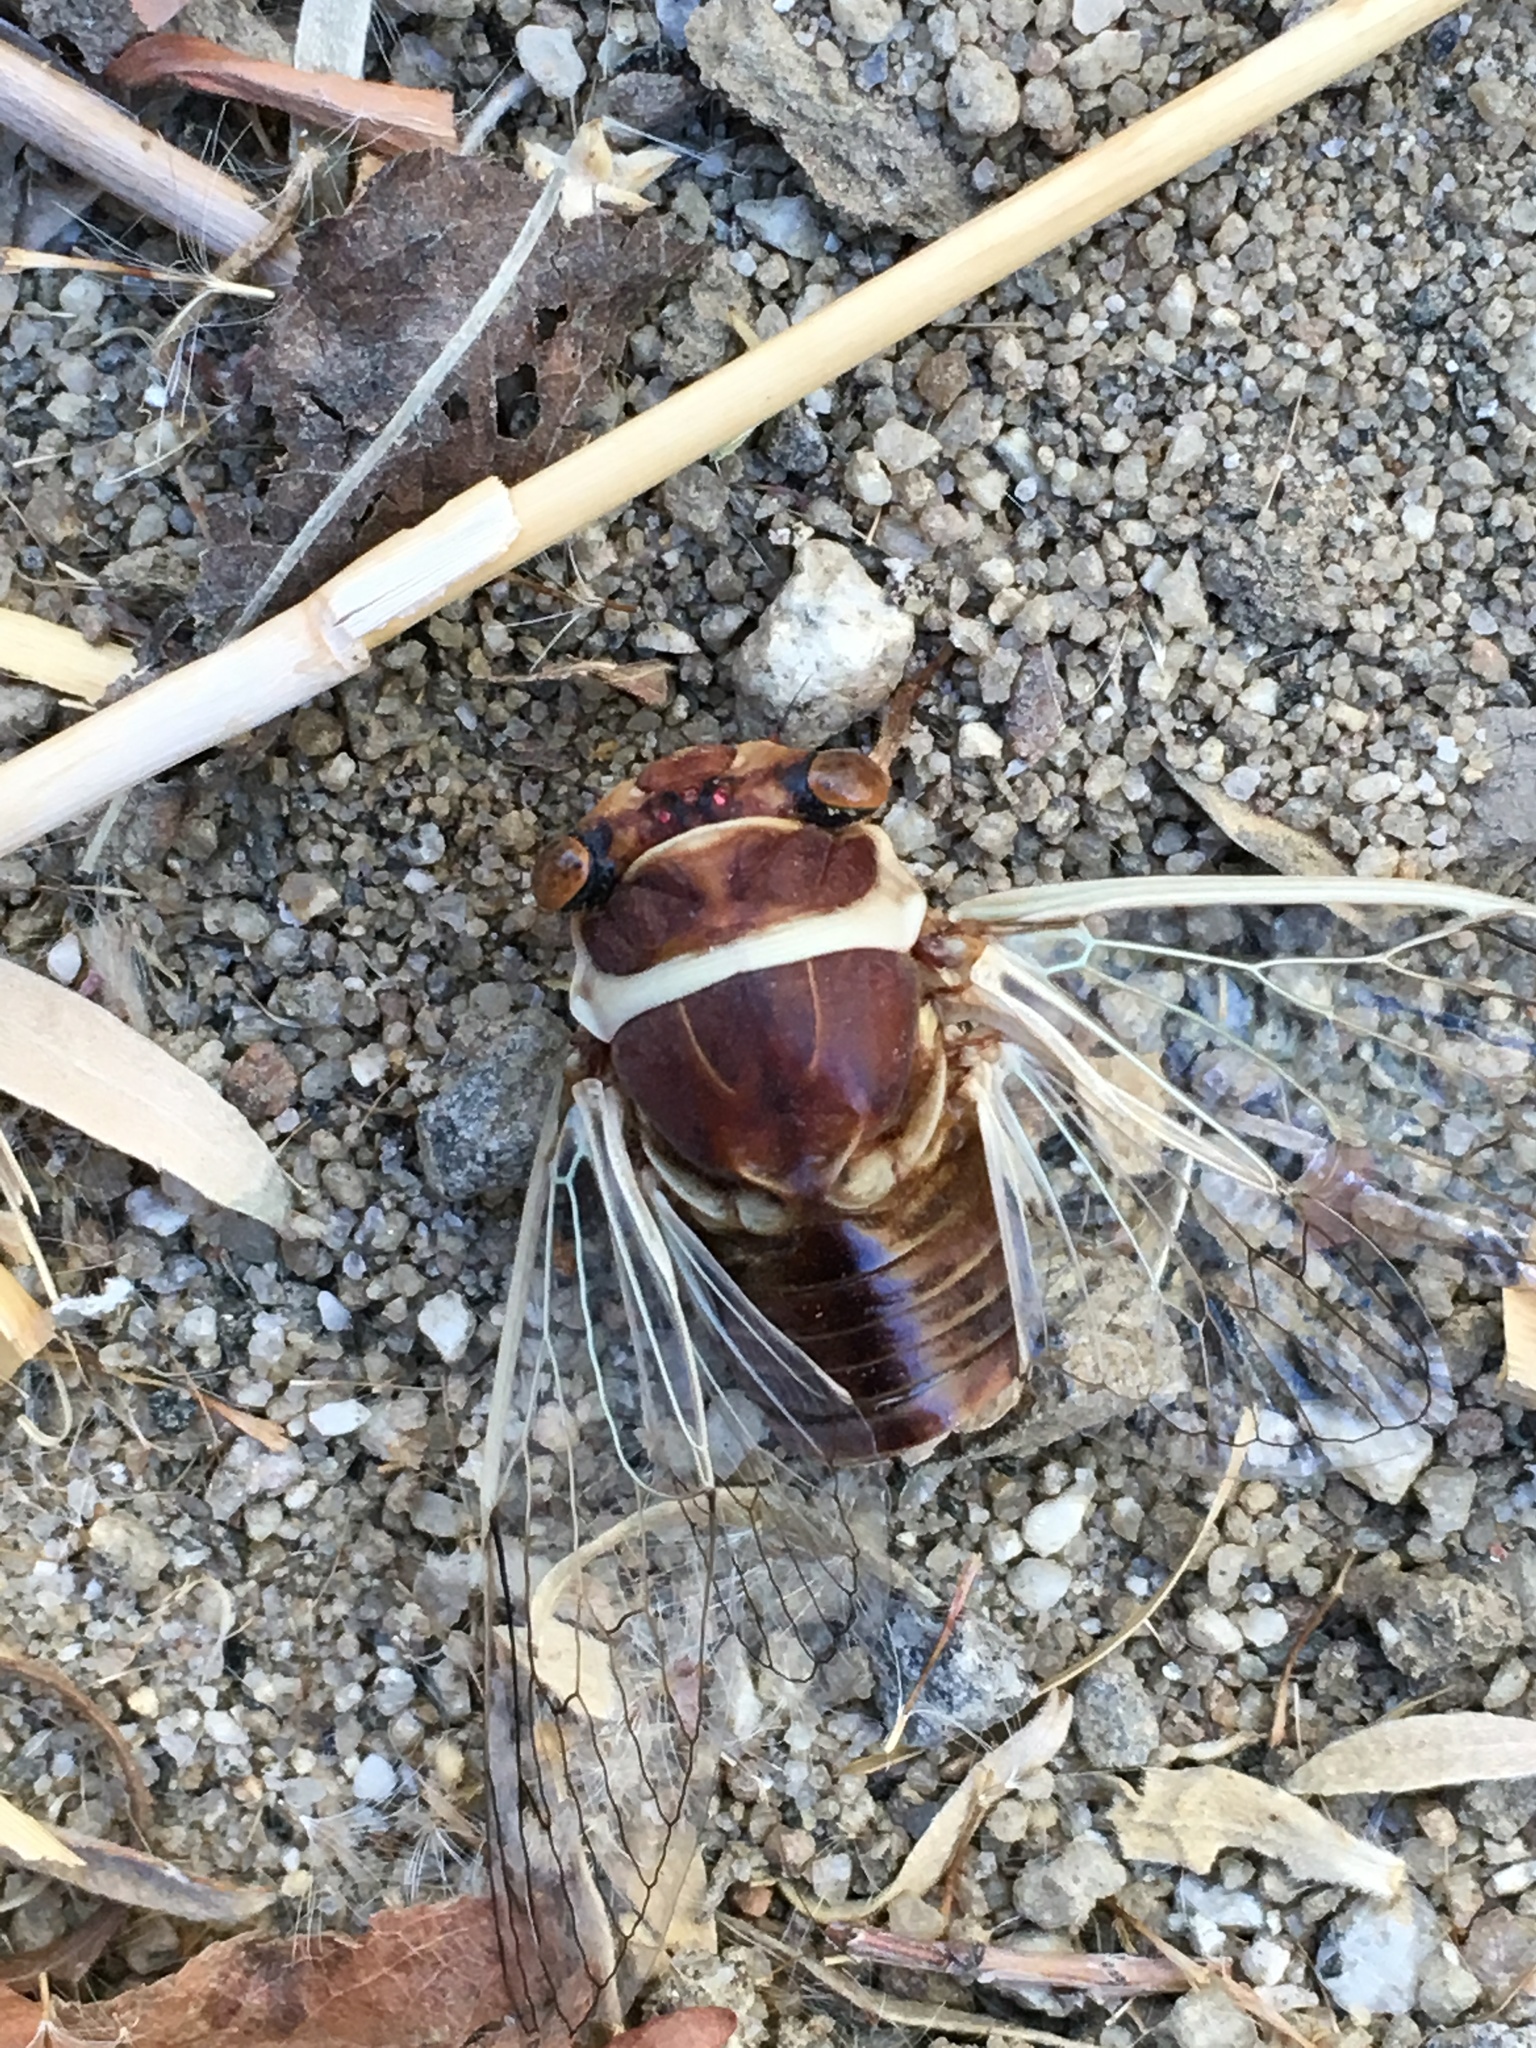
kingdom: Animalia
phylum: Arthropoda
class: Insecta
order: Hemiptera
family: Cicadidae
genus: Diceroprocta
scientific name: Diceroprocta apache
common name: Desert cicada
